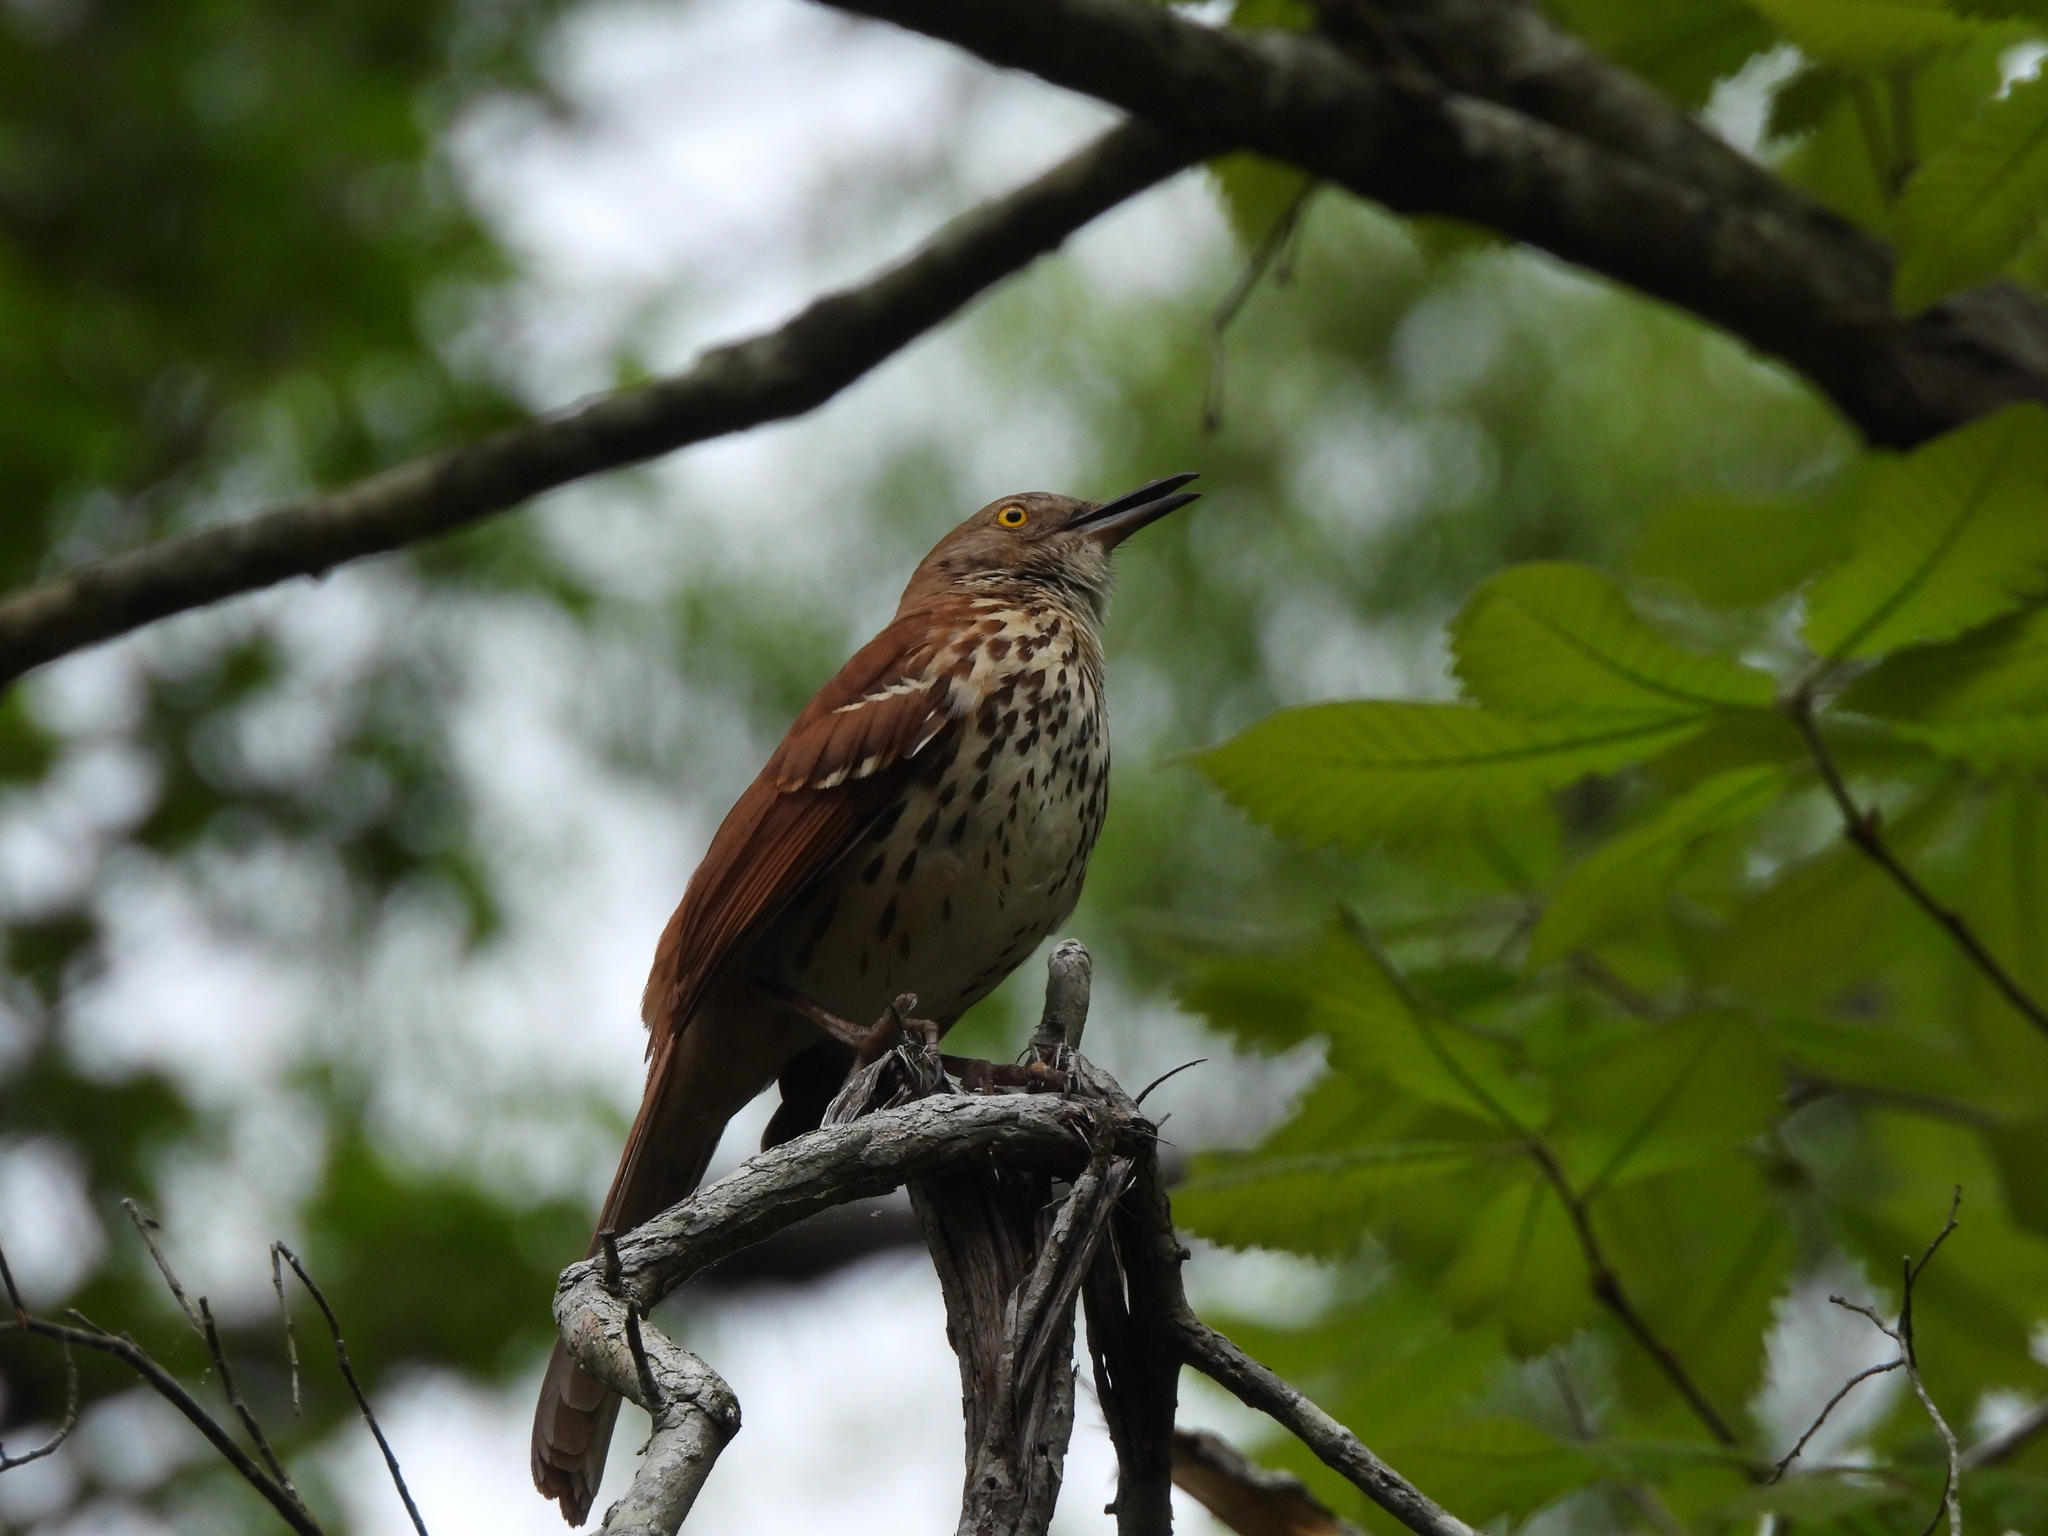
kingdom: Animalia
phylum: Chordata
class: Aves
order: Passeriformes
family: Mimidae
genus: Toxostoma
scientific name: Toxostoma rufum
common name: Brown thrasher
